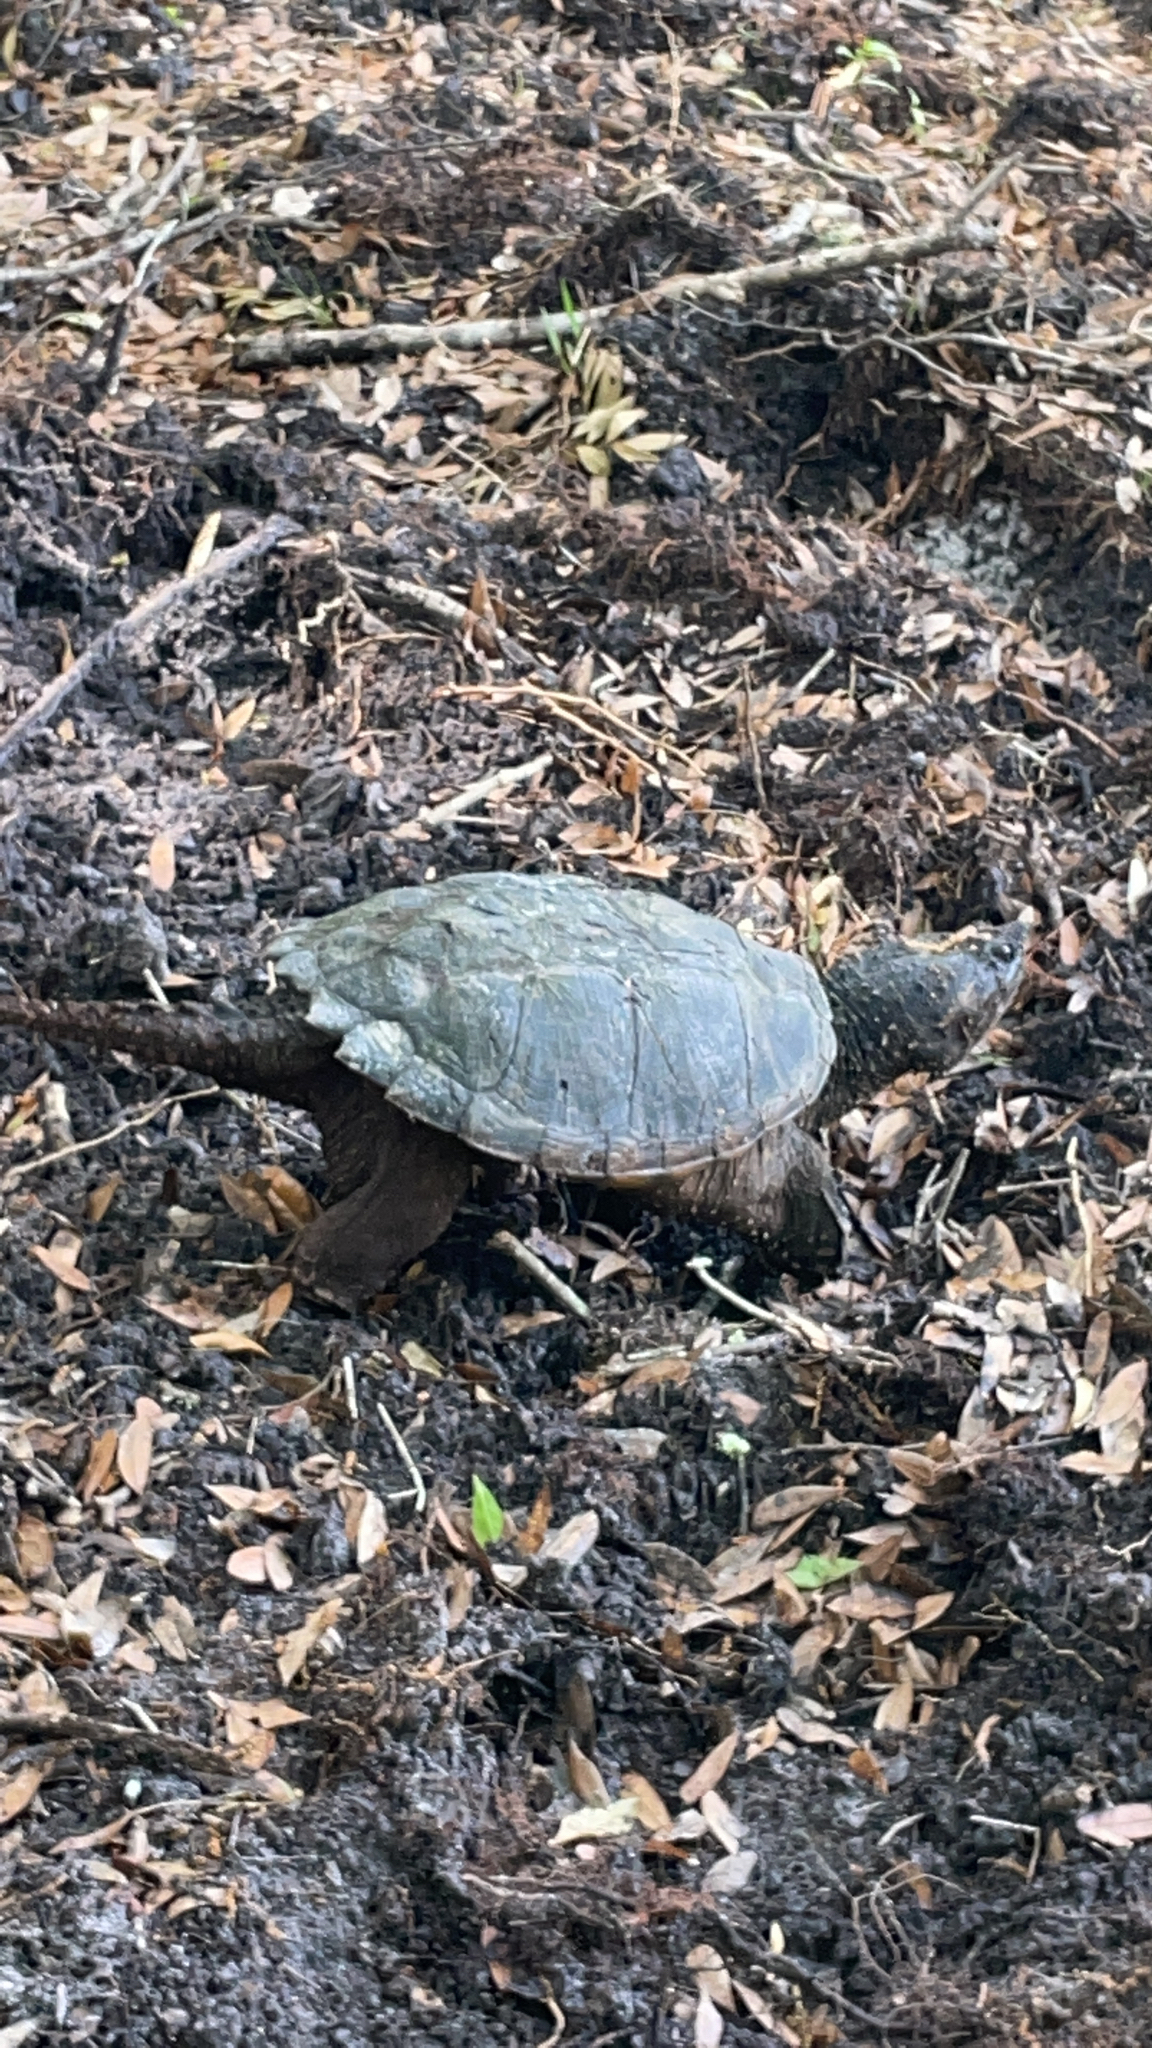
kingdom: Animalia
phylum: Chordata
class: Testudines
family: Chelydridae
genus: Chelydra
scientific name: Chelydra serpentina
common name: Common snapping turtle
